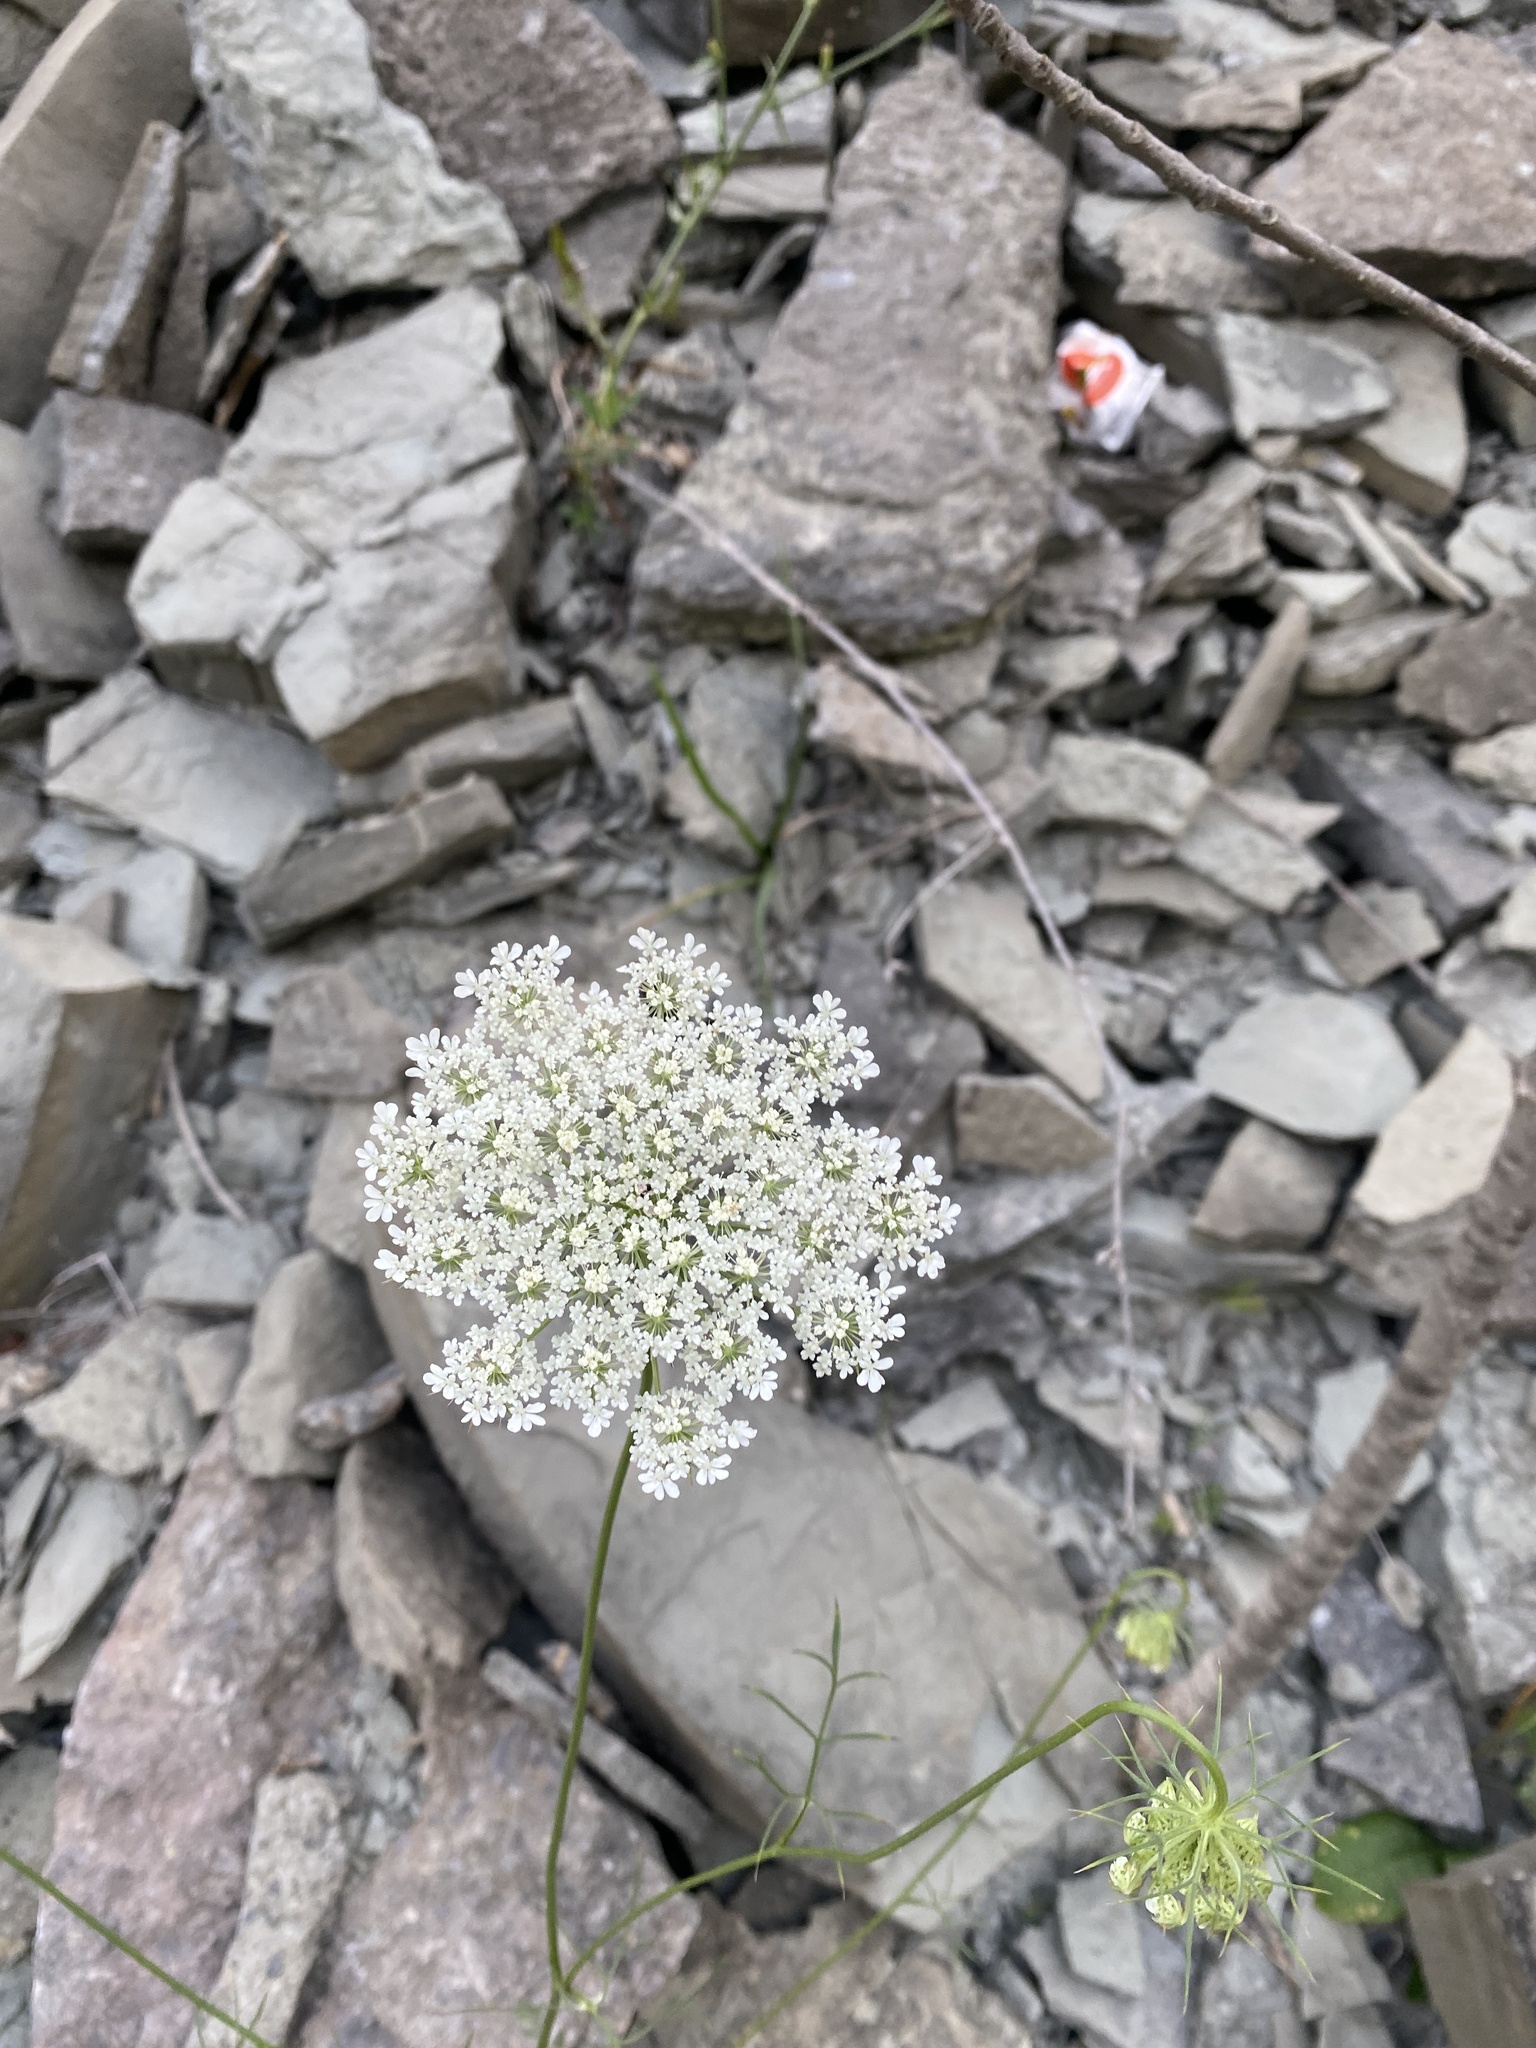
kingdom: Plantae
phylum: Tracheophyta
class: Magnoliopsida
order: Apiales
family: Apiaceae
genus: Daucus
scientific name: Daucus carota
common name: Wild carrot
